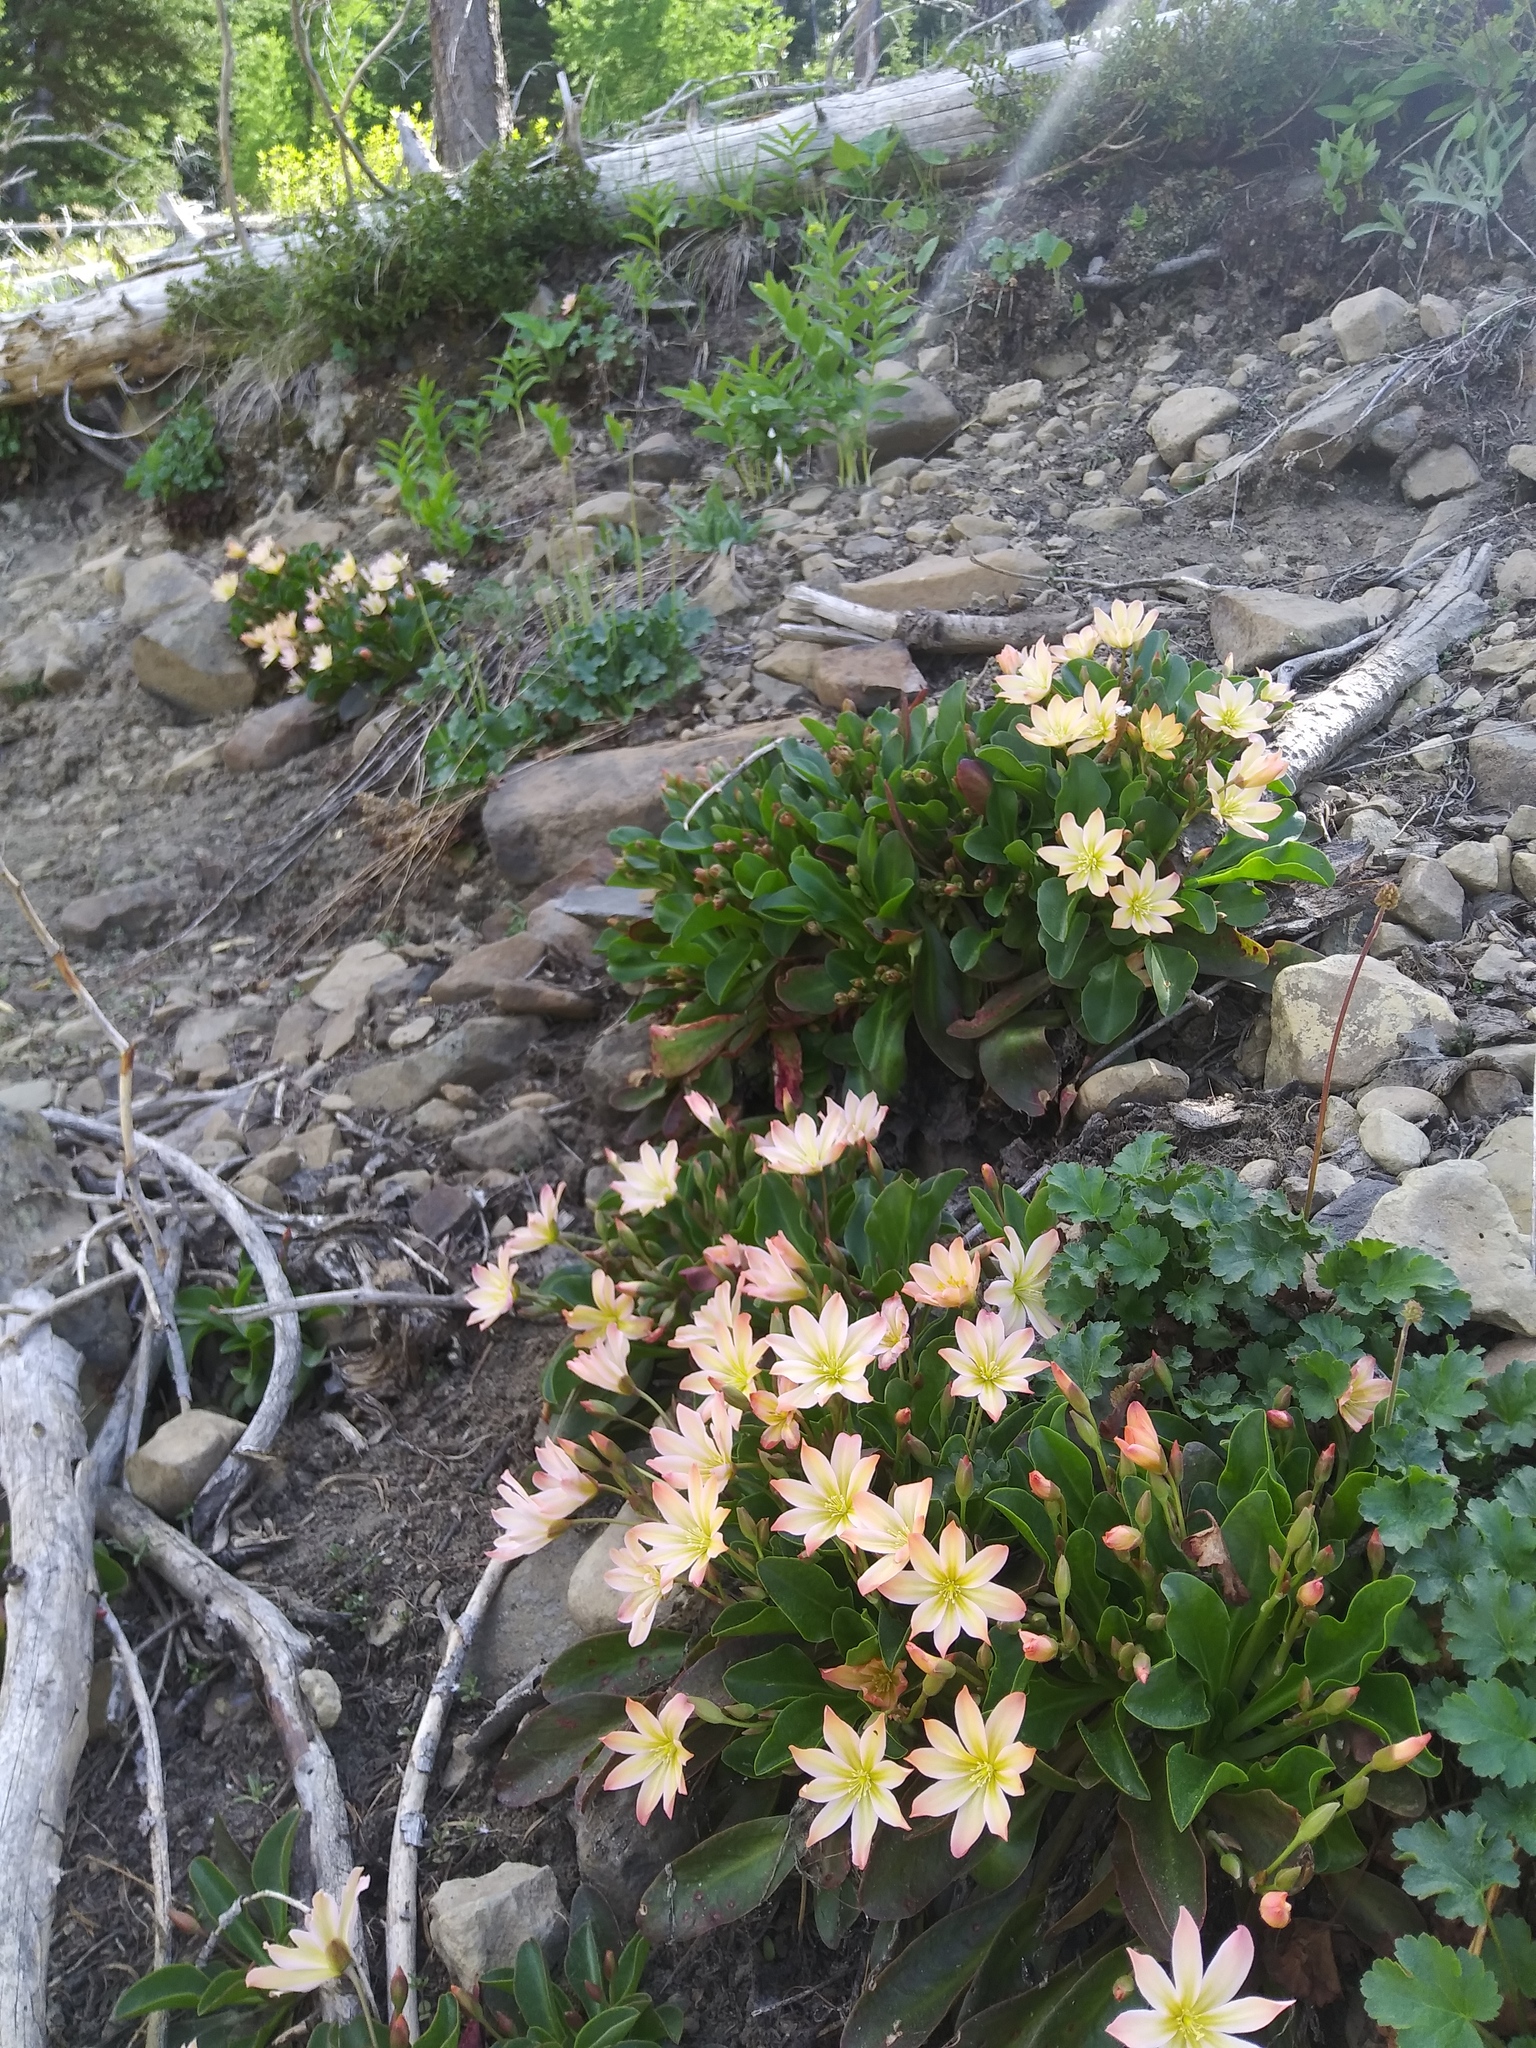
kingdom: Plantae
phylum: Tracheophyta
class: Magnoliopsida
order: Caryophyllales
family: Montiaceae
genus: Lewisiopsis
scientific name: Lewisiopsis tweedyi
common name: Tweedy's pussypaws
